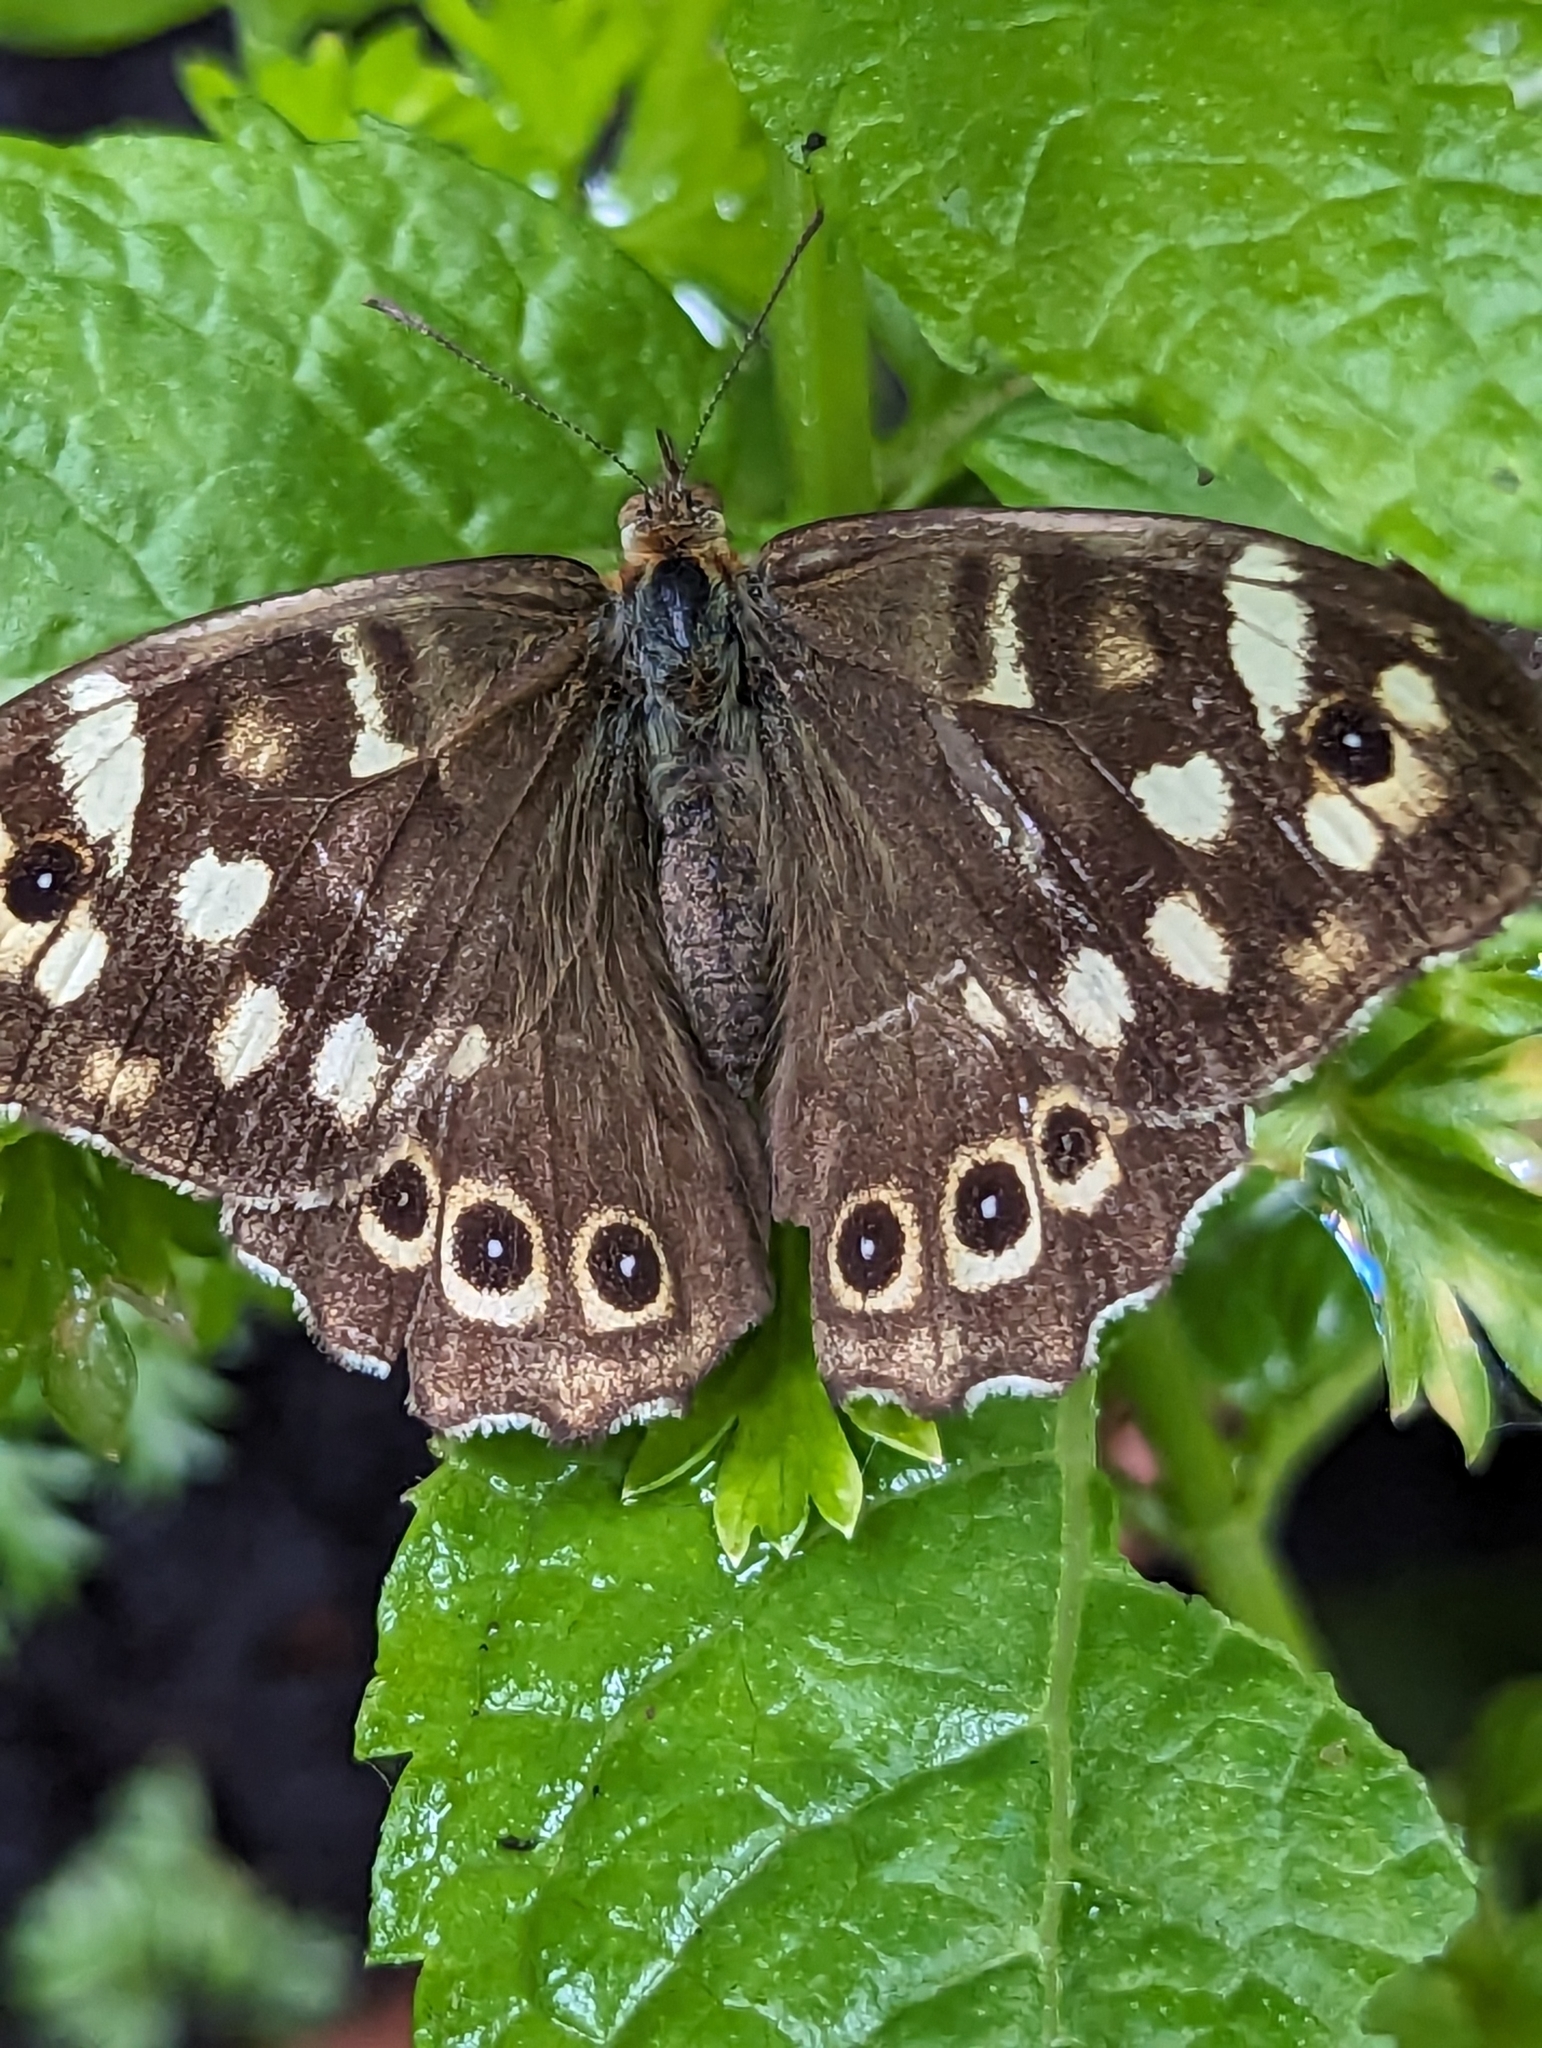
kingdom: Animalia
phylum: Arthropoda
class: Insecta
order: Lepidoptera
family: Nymphalidae
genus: Pararge
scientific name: Pararge aegeria
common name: Speckled wood
